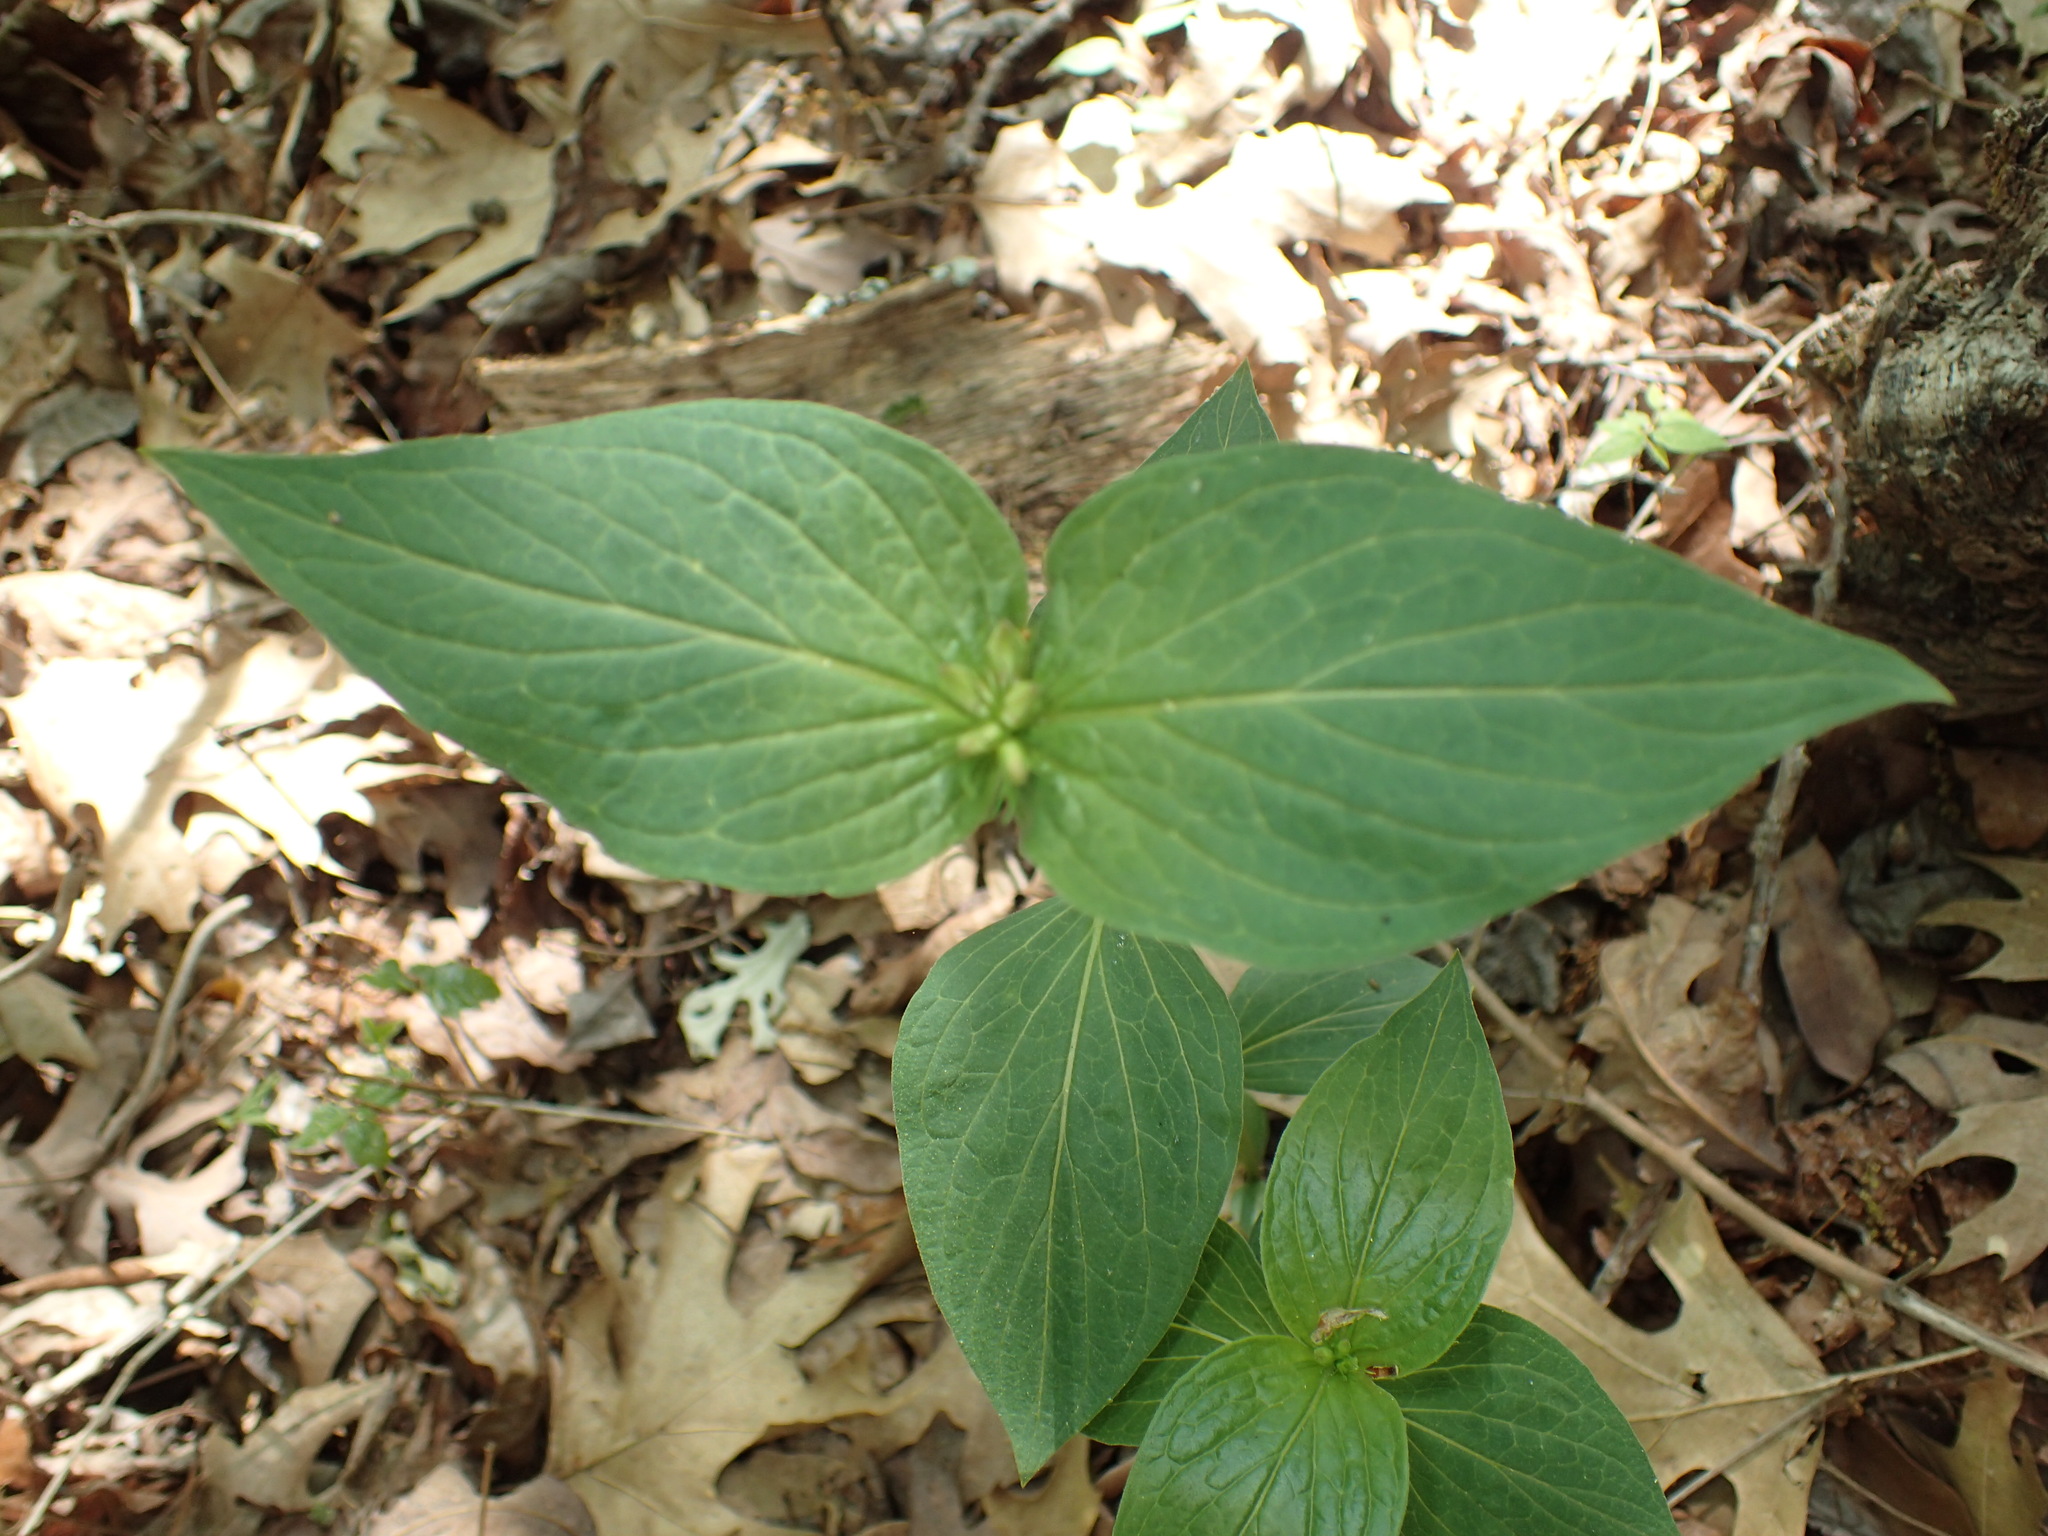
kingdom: Plantae
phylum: Tracheophyta
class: Magnoliopsida
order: Gentianales
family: Loganiaceae
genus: Spigelia
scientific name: Spigelia marilandica
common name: Indian-pink
